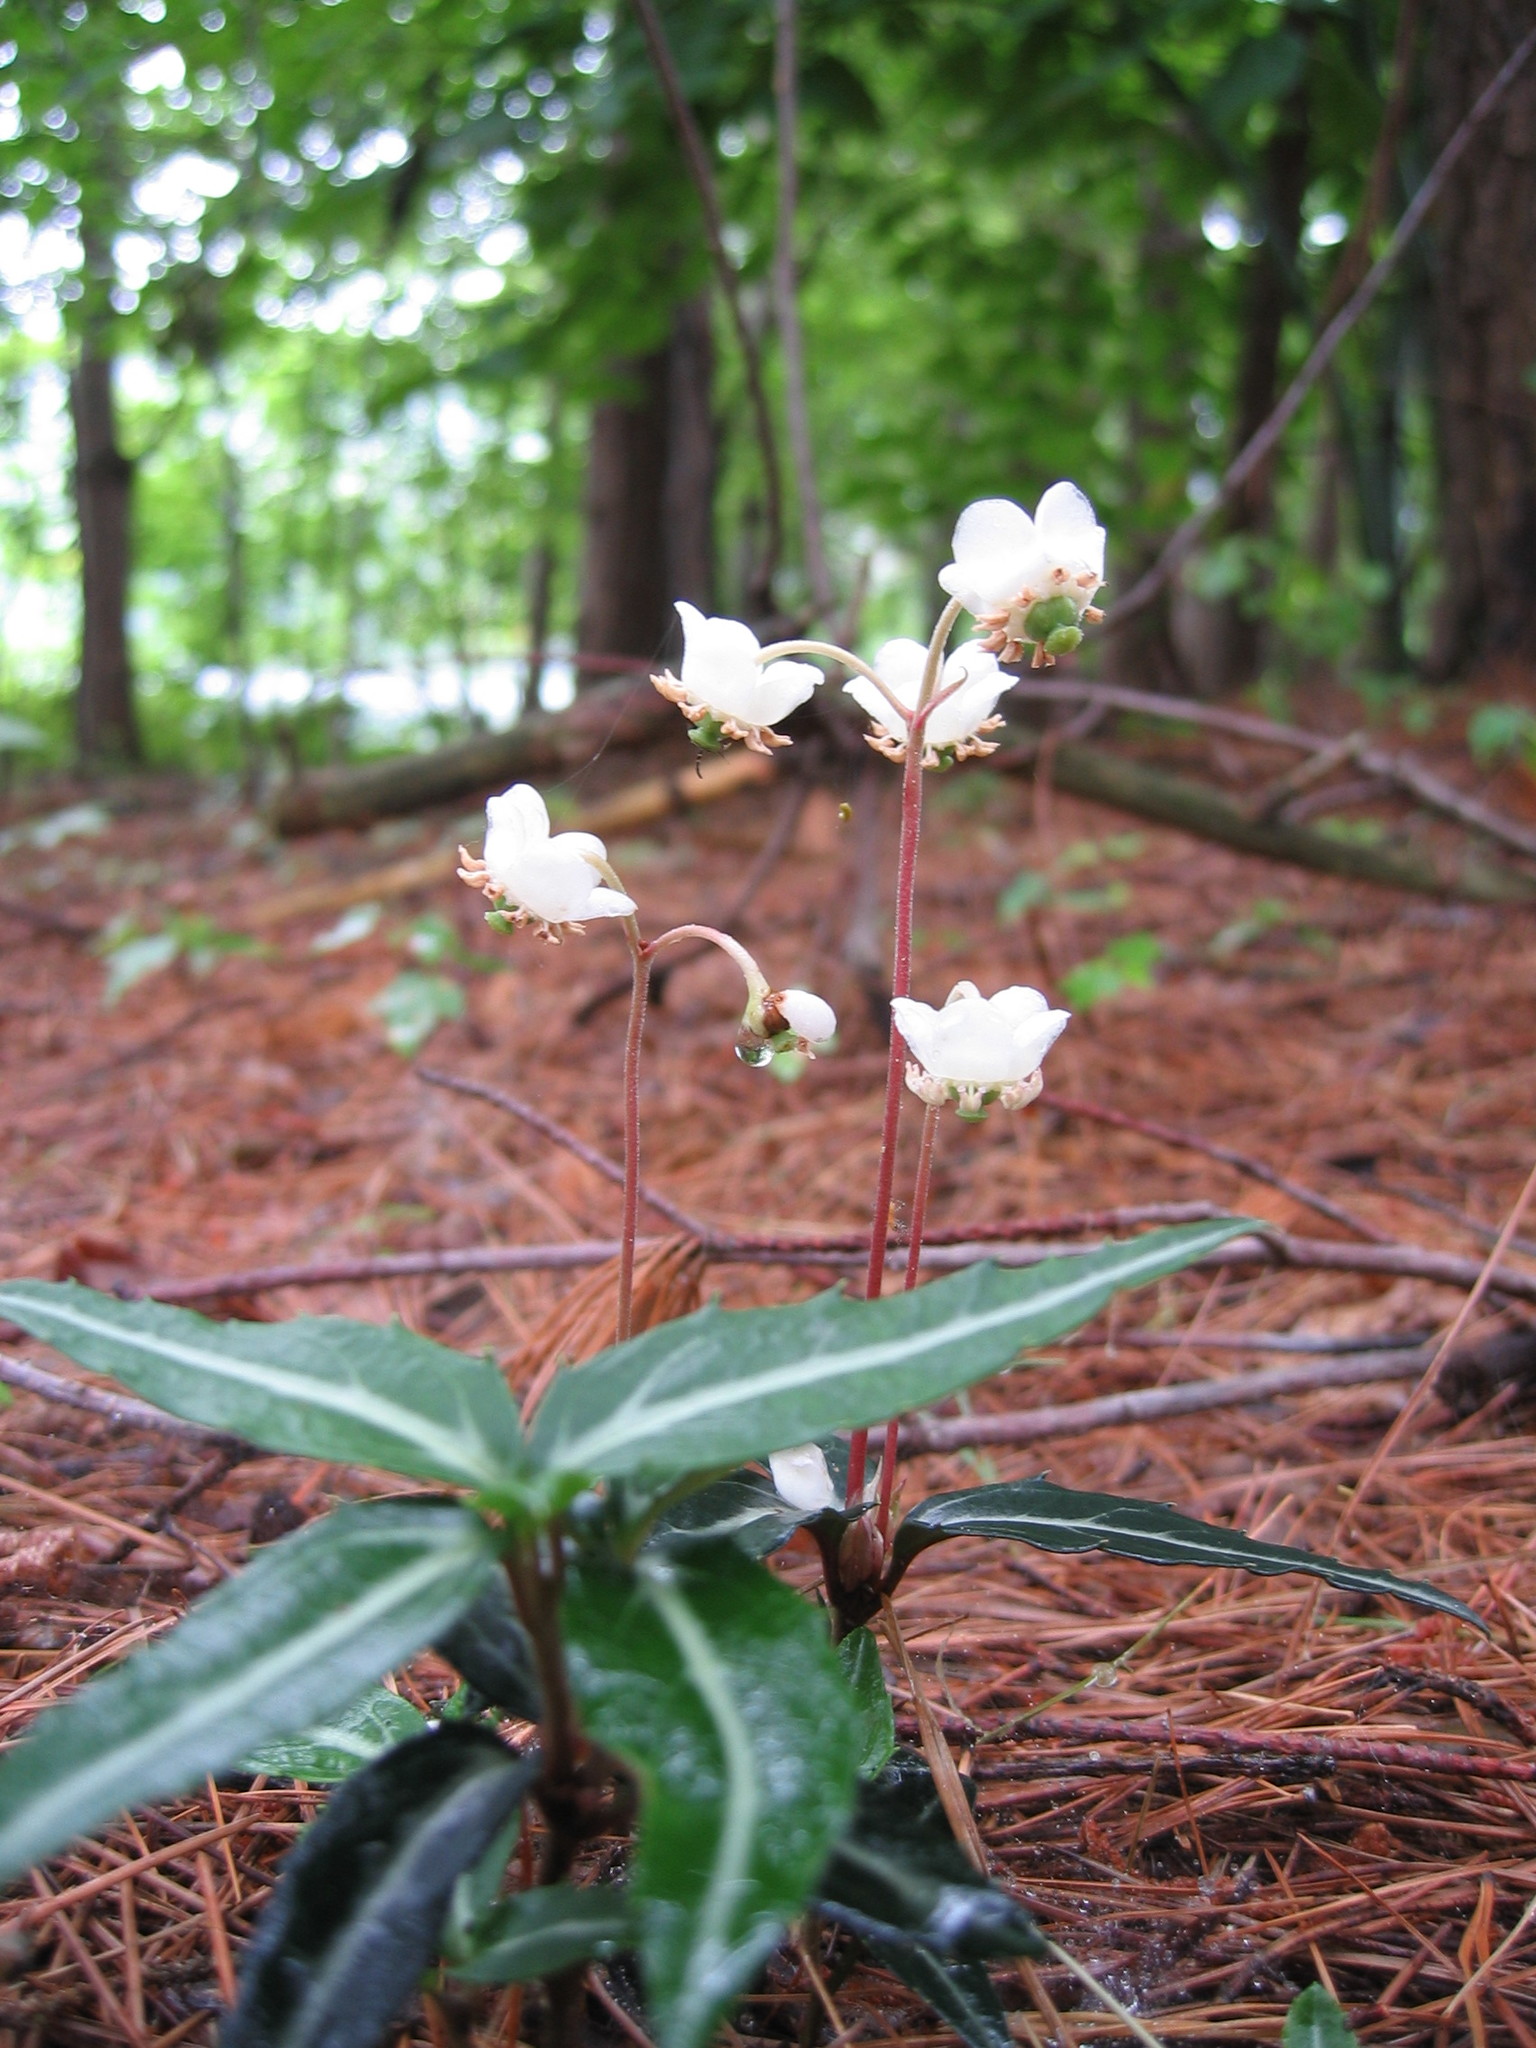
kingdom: Plantae
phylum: Tracheophyta
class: Magnoliopsida
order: Ericales
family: Ericaceae
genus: Chimaphila
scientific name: Chimaphila maculata
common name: Spotted pipsissewa
